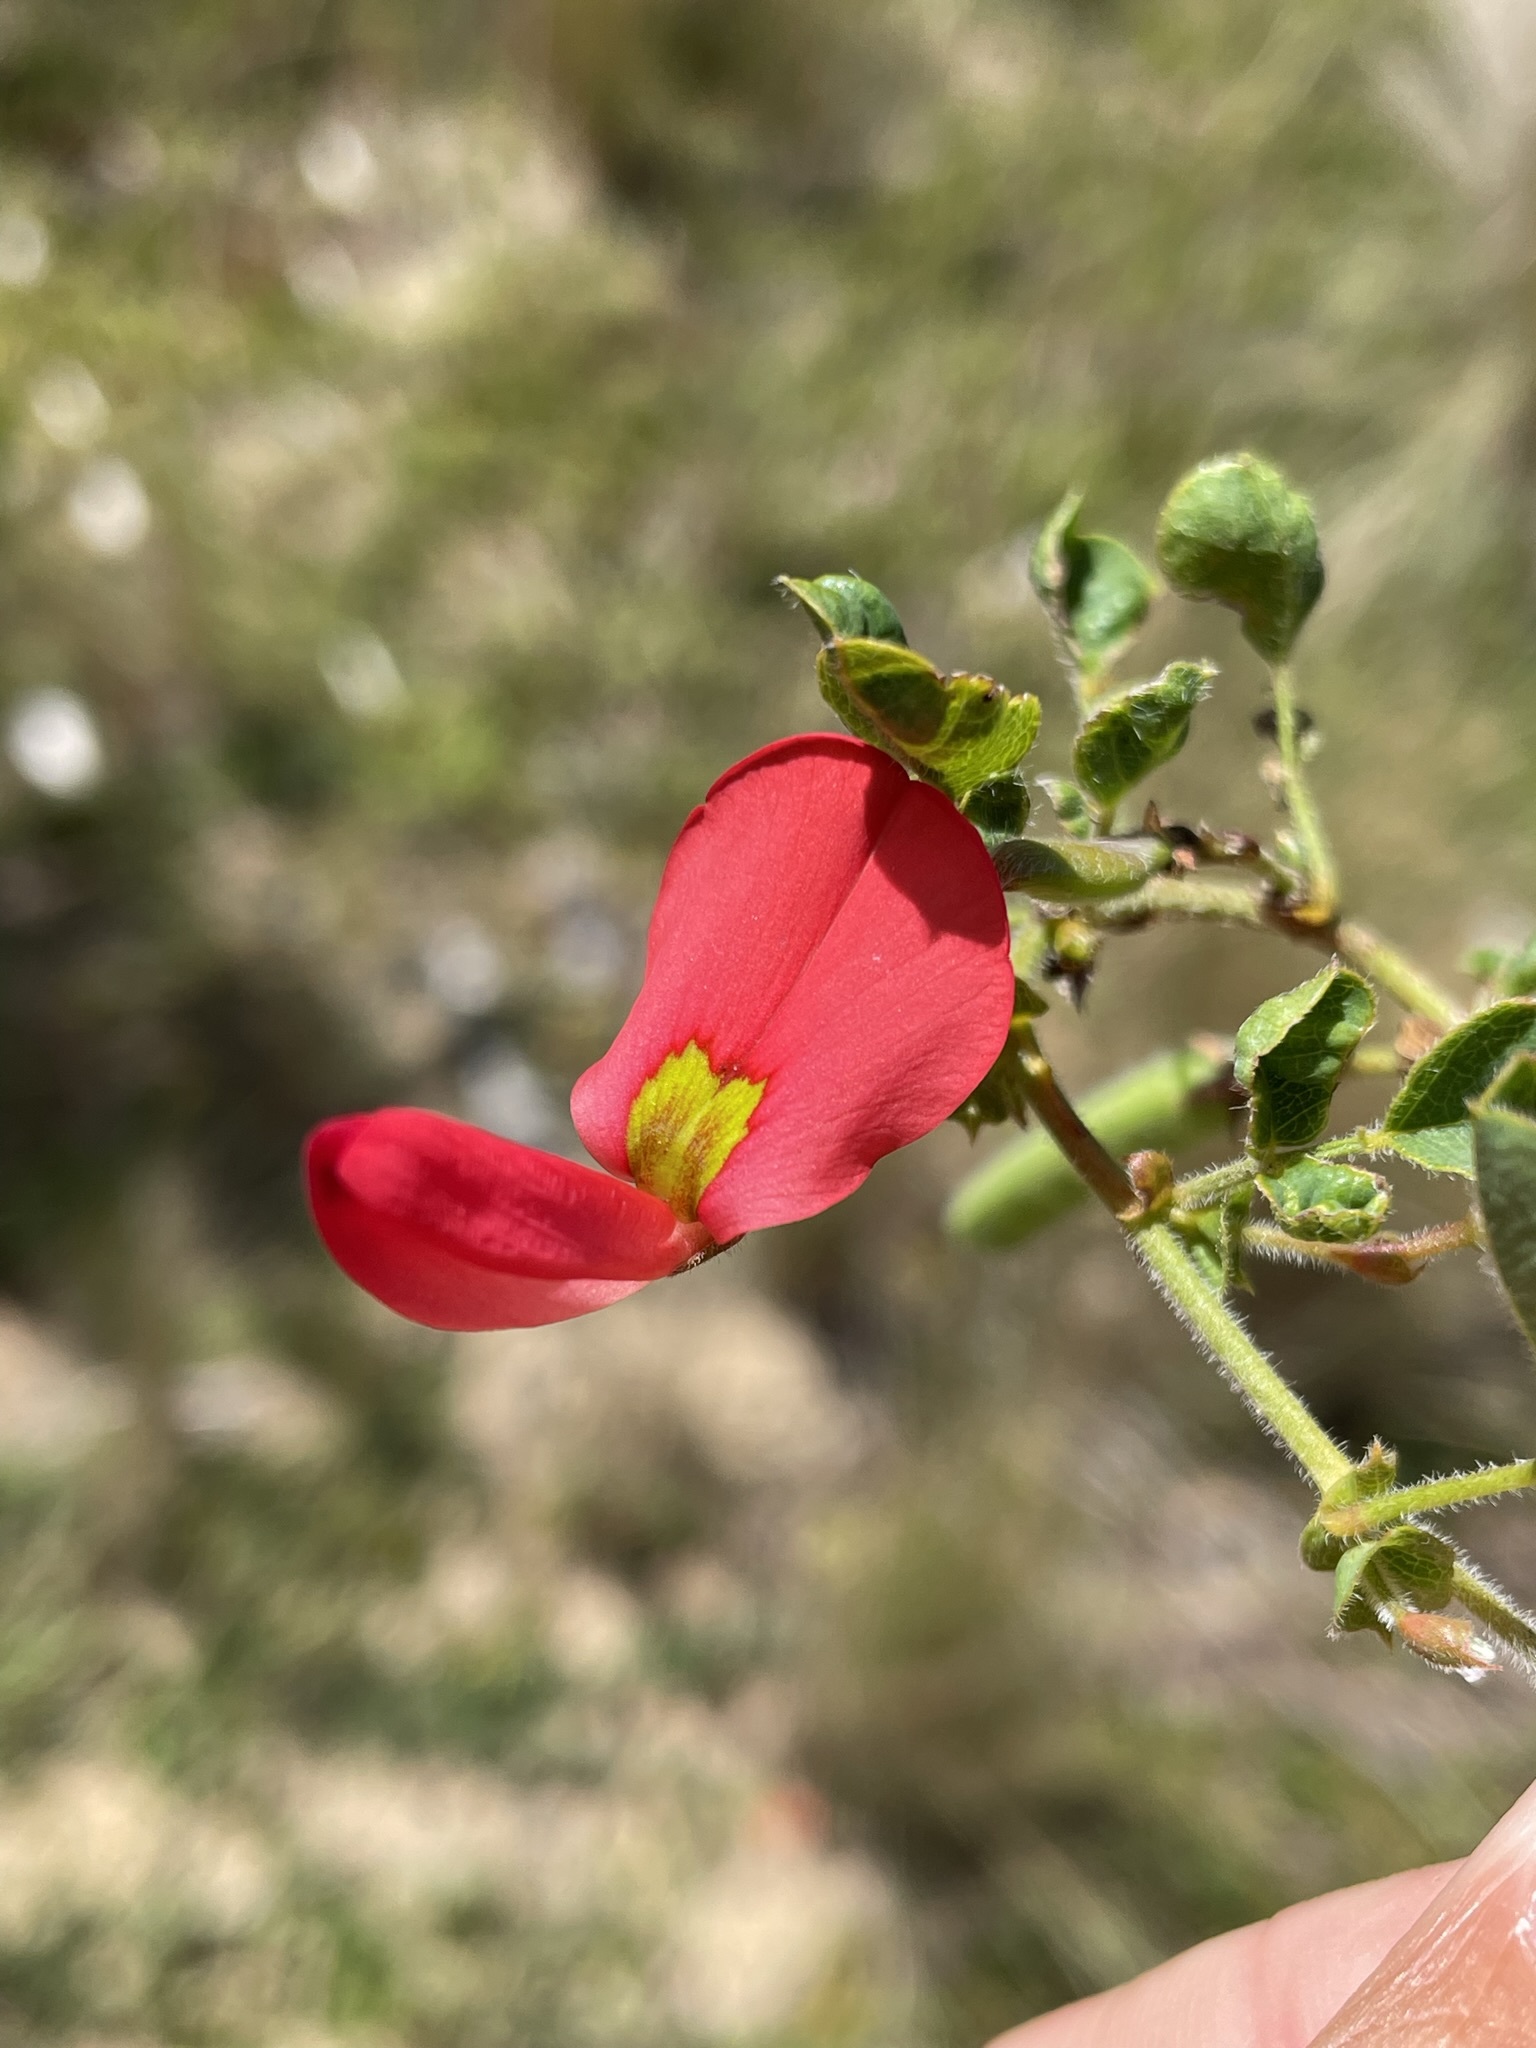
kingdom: Plantae
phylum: Tracheophyta
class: Magnoliopsida
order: Fabales
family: Fabaceae
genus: Kennedia
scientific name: Kennedia prostrata
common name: Running-postman
